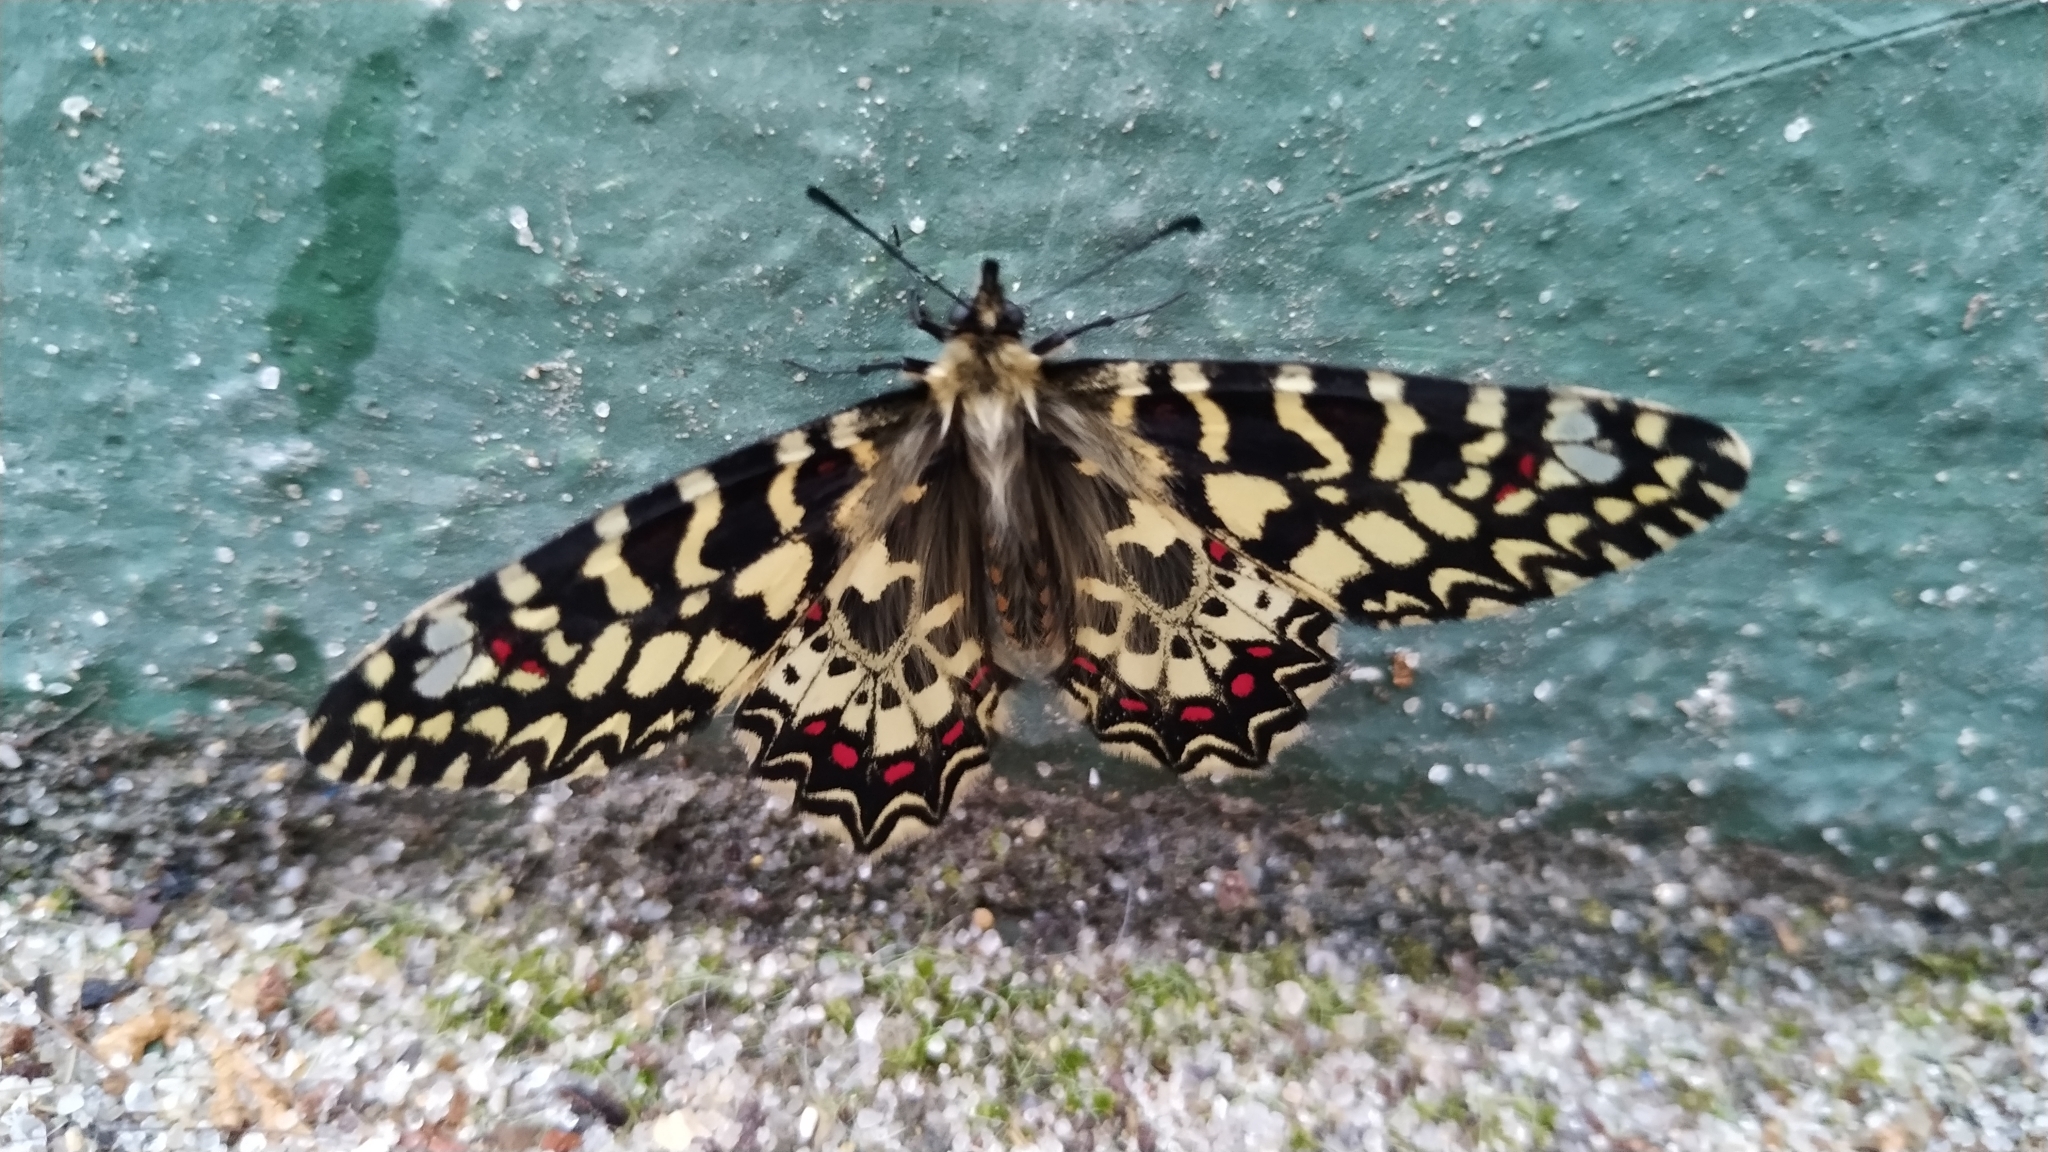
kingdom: Animalia
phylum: Arthropoda
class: Insecta
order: Lepidoptera
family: Papilionidae
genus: Zerynthia
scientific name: Zerynthia rumina
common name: Spanish festoon
